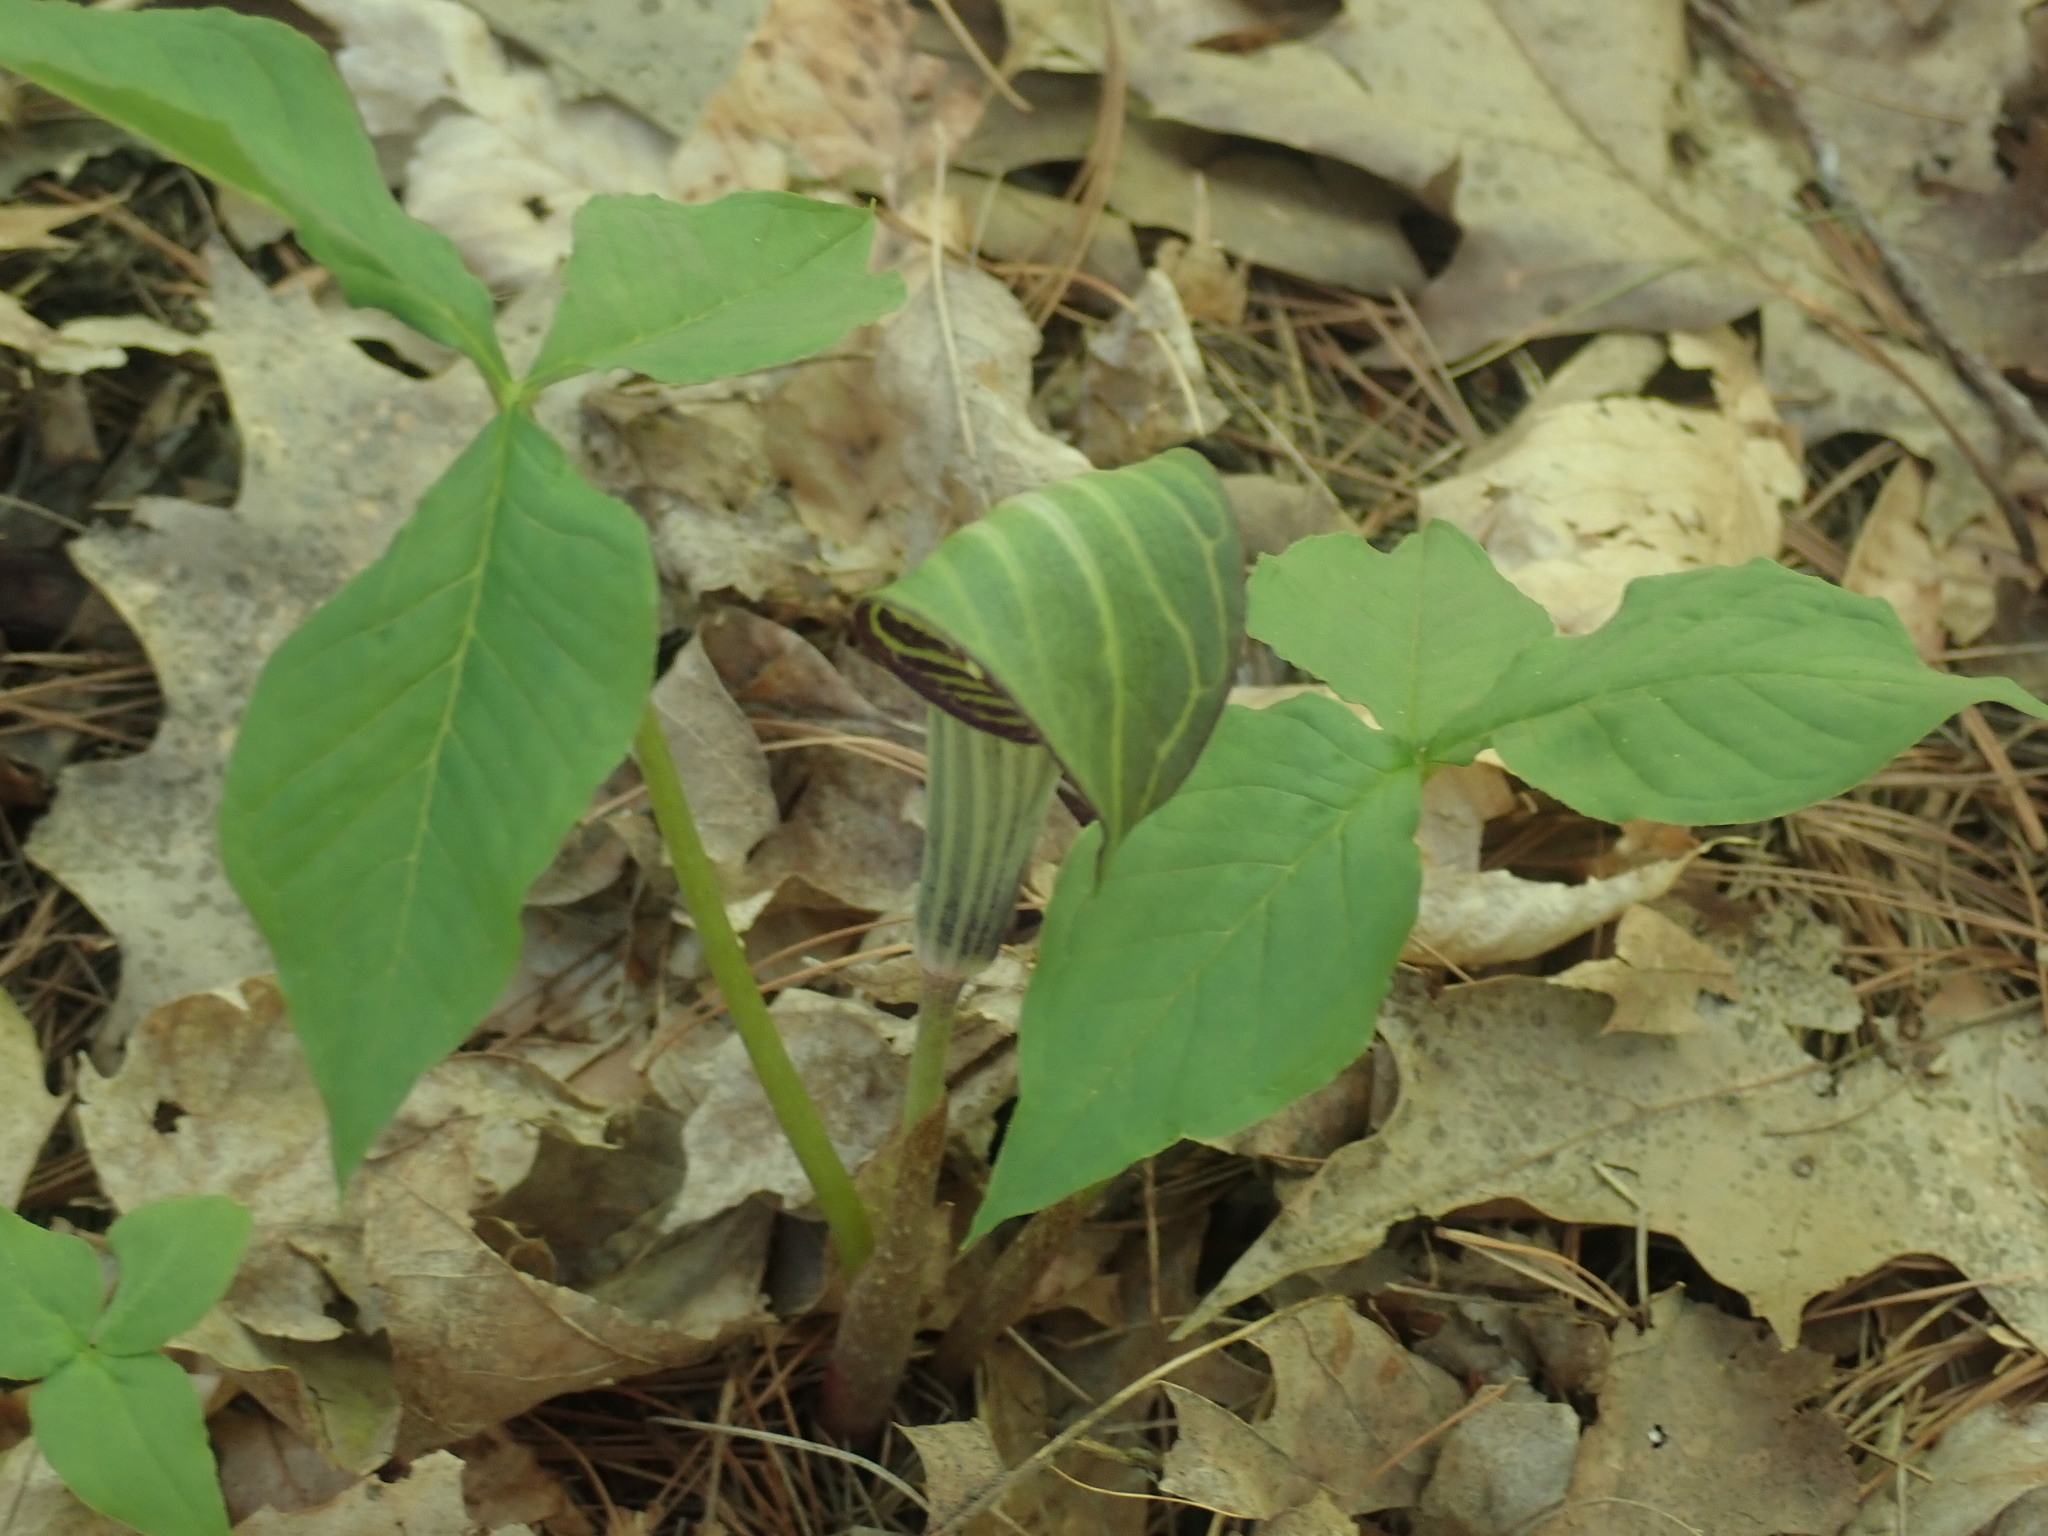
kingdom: Plantae
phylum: Tracheophyta
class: Liliopsida
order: Alismatales
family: Araceae
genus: Arisaema
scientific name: Arisaema triphyllum
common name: Jack-in-the-pulpit
